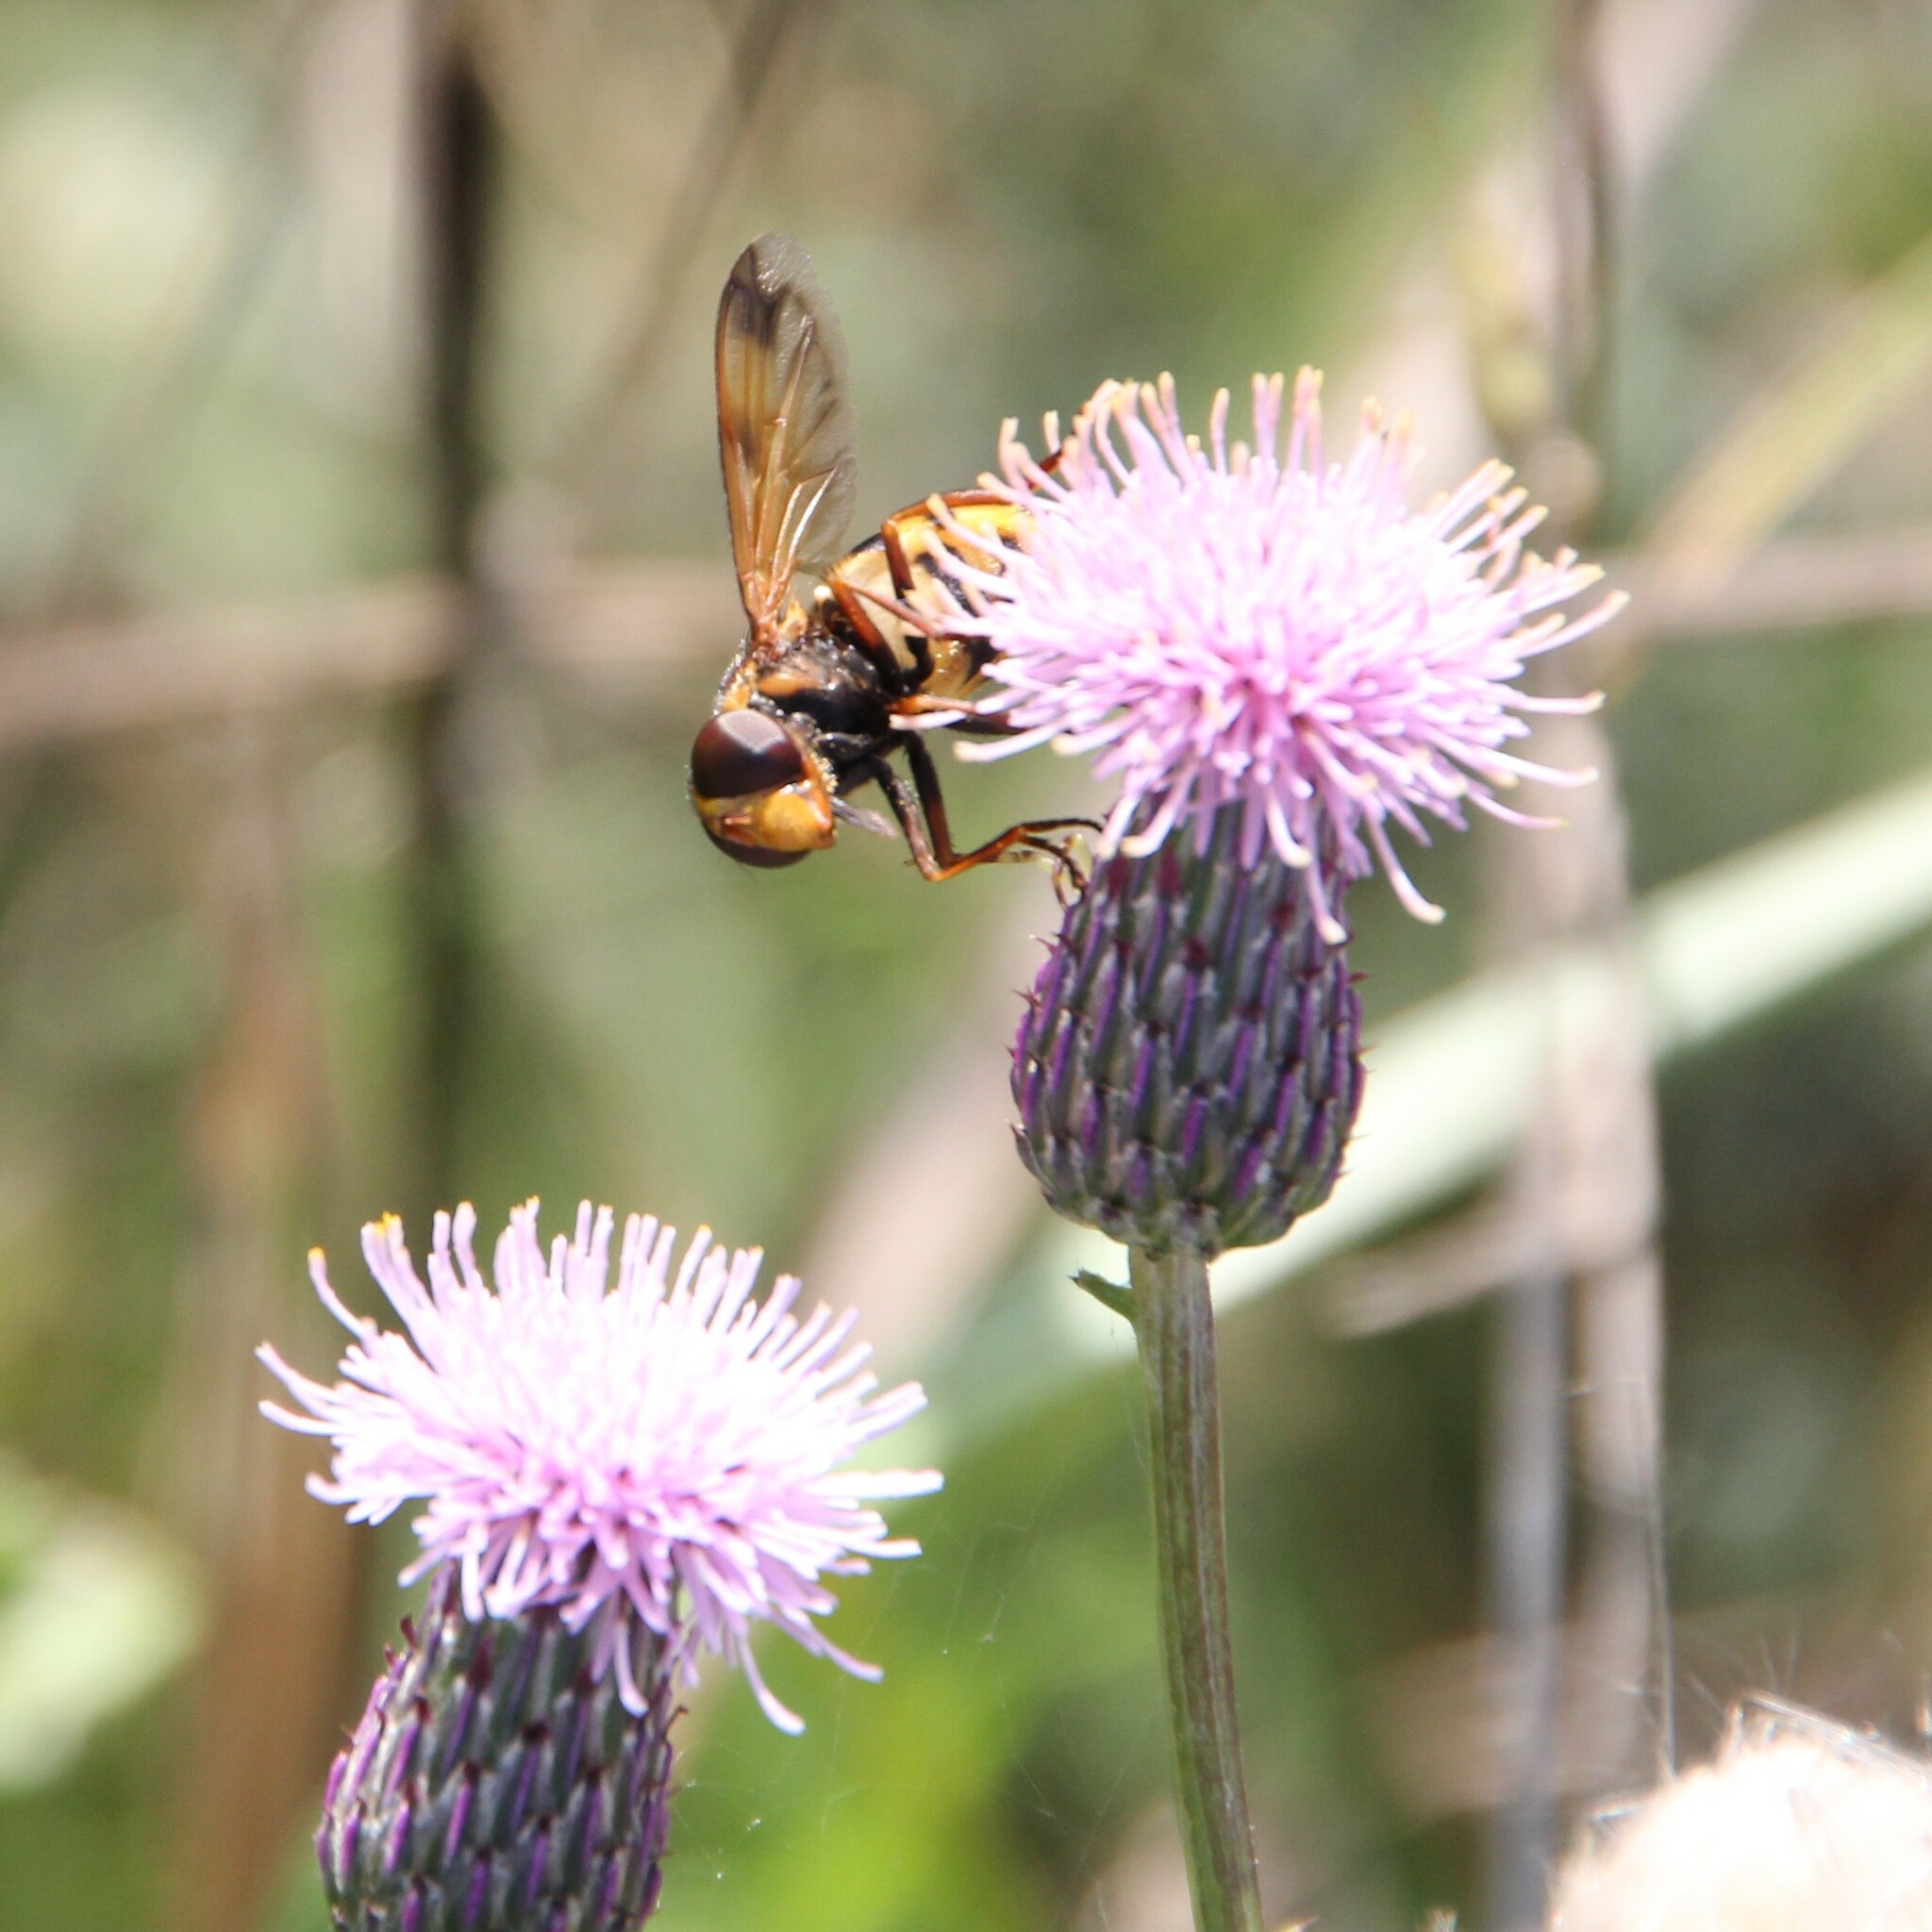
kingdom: Plantae
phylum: Tracheophyta
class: Magnoliopsida
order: Asterales
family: Asteraceae
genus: Cirsium
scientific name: Cirsium arvense
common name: Creeping thistle
